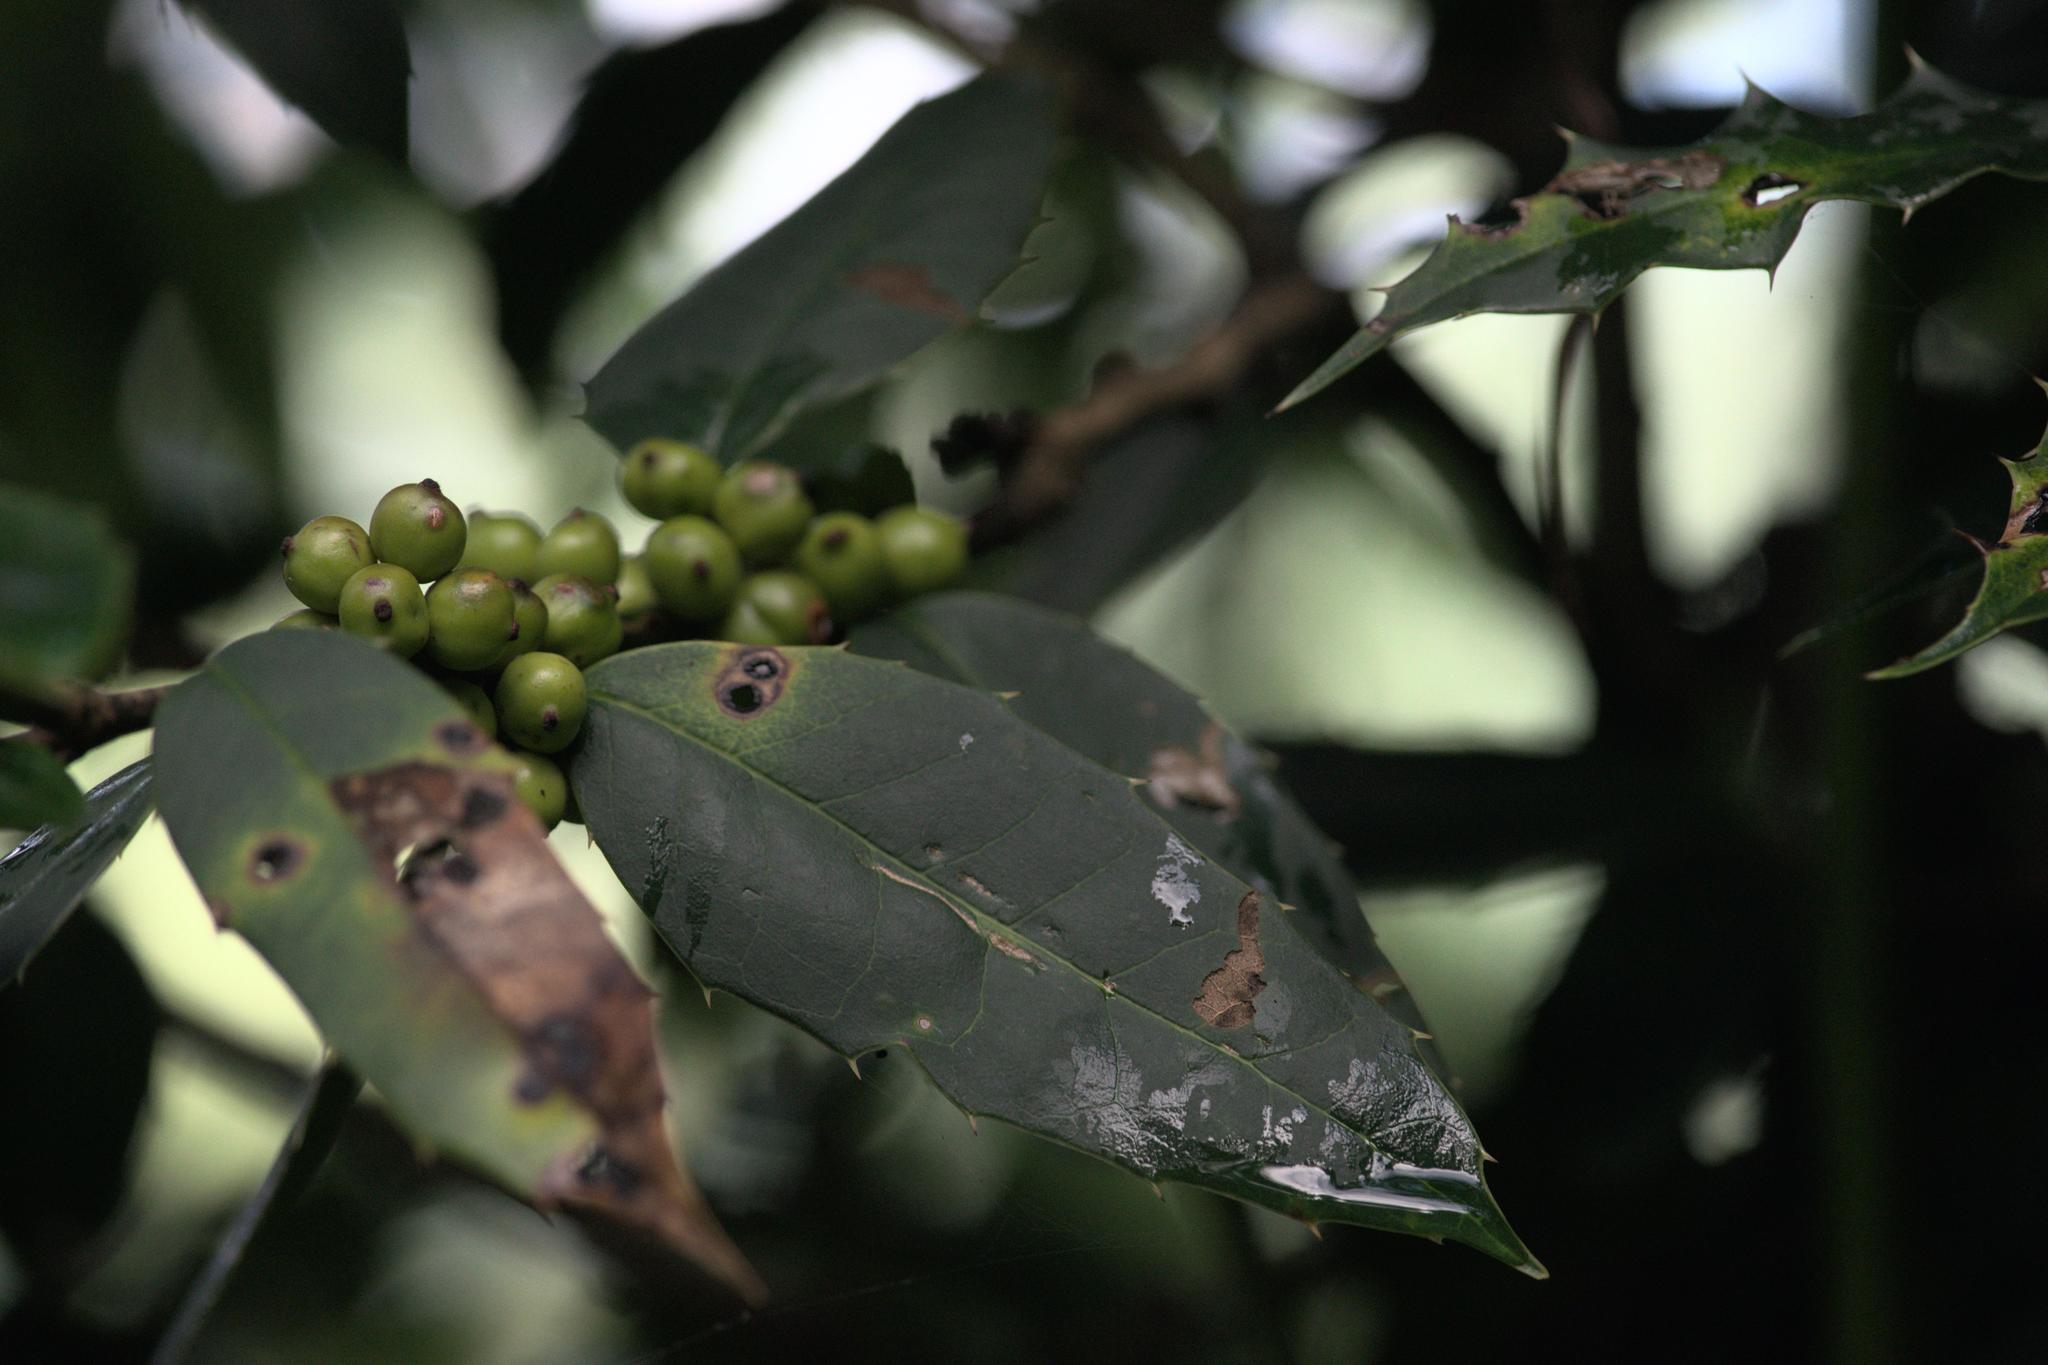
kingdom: Plantae
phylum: Tracheophyta
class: Magnoliopsida
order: Aquifoliales
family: Aquifoliaceae
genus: Ilex
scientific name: Ilex dipyrena
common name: Himalayan holly
